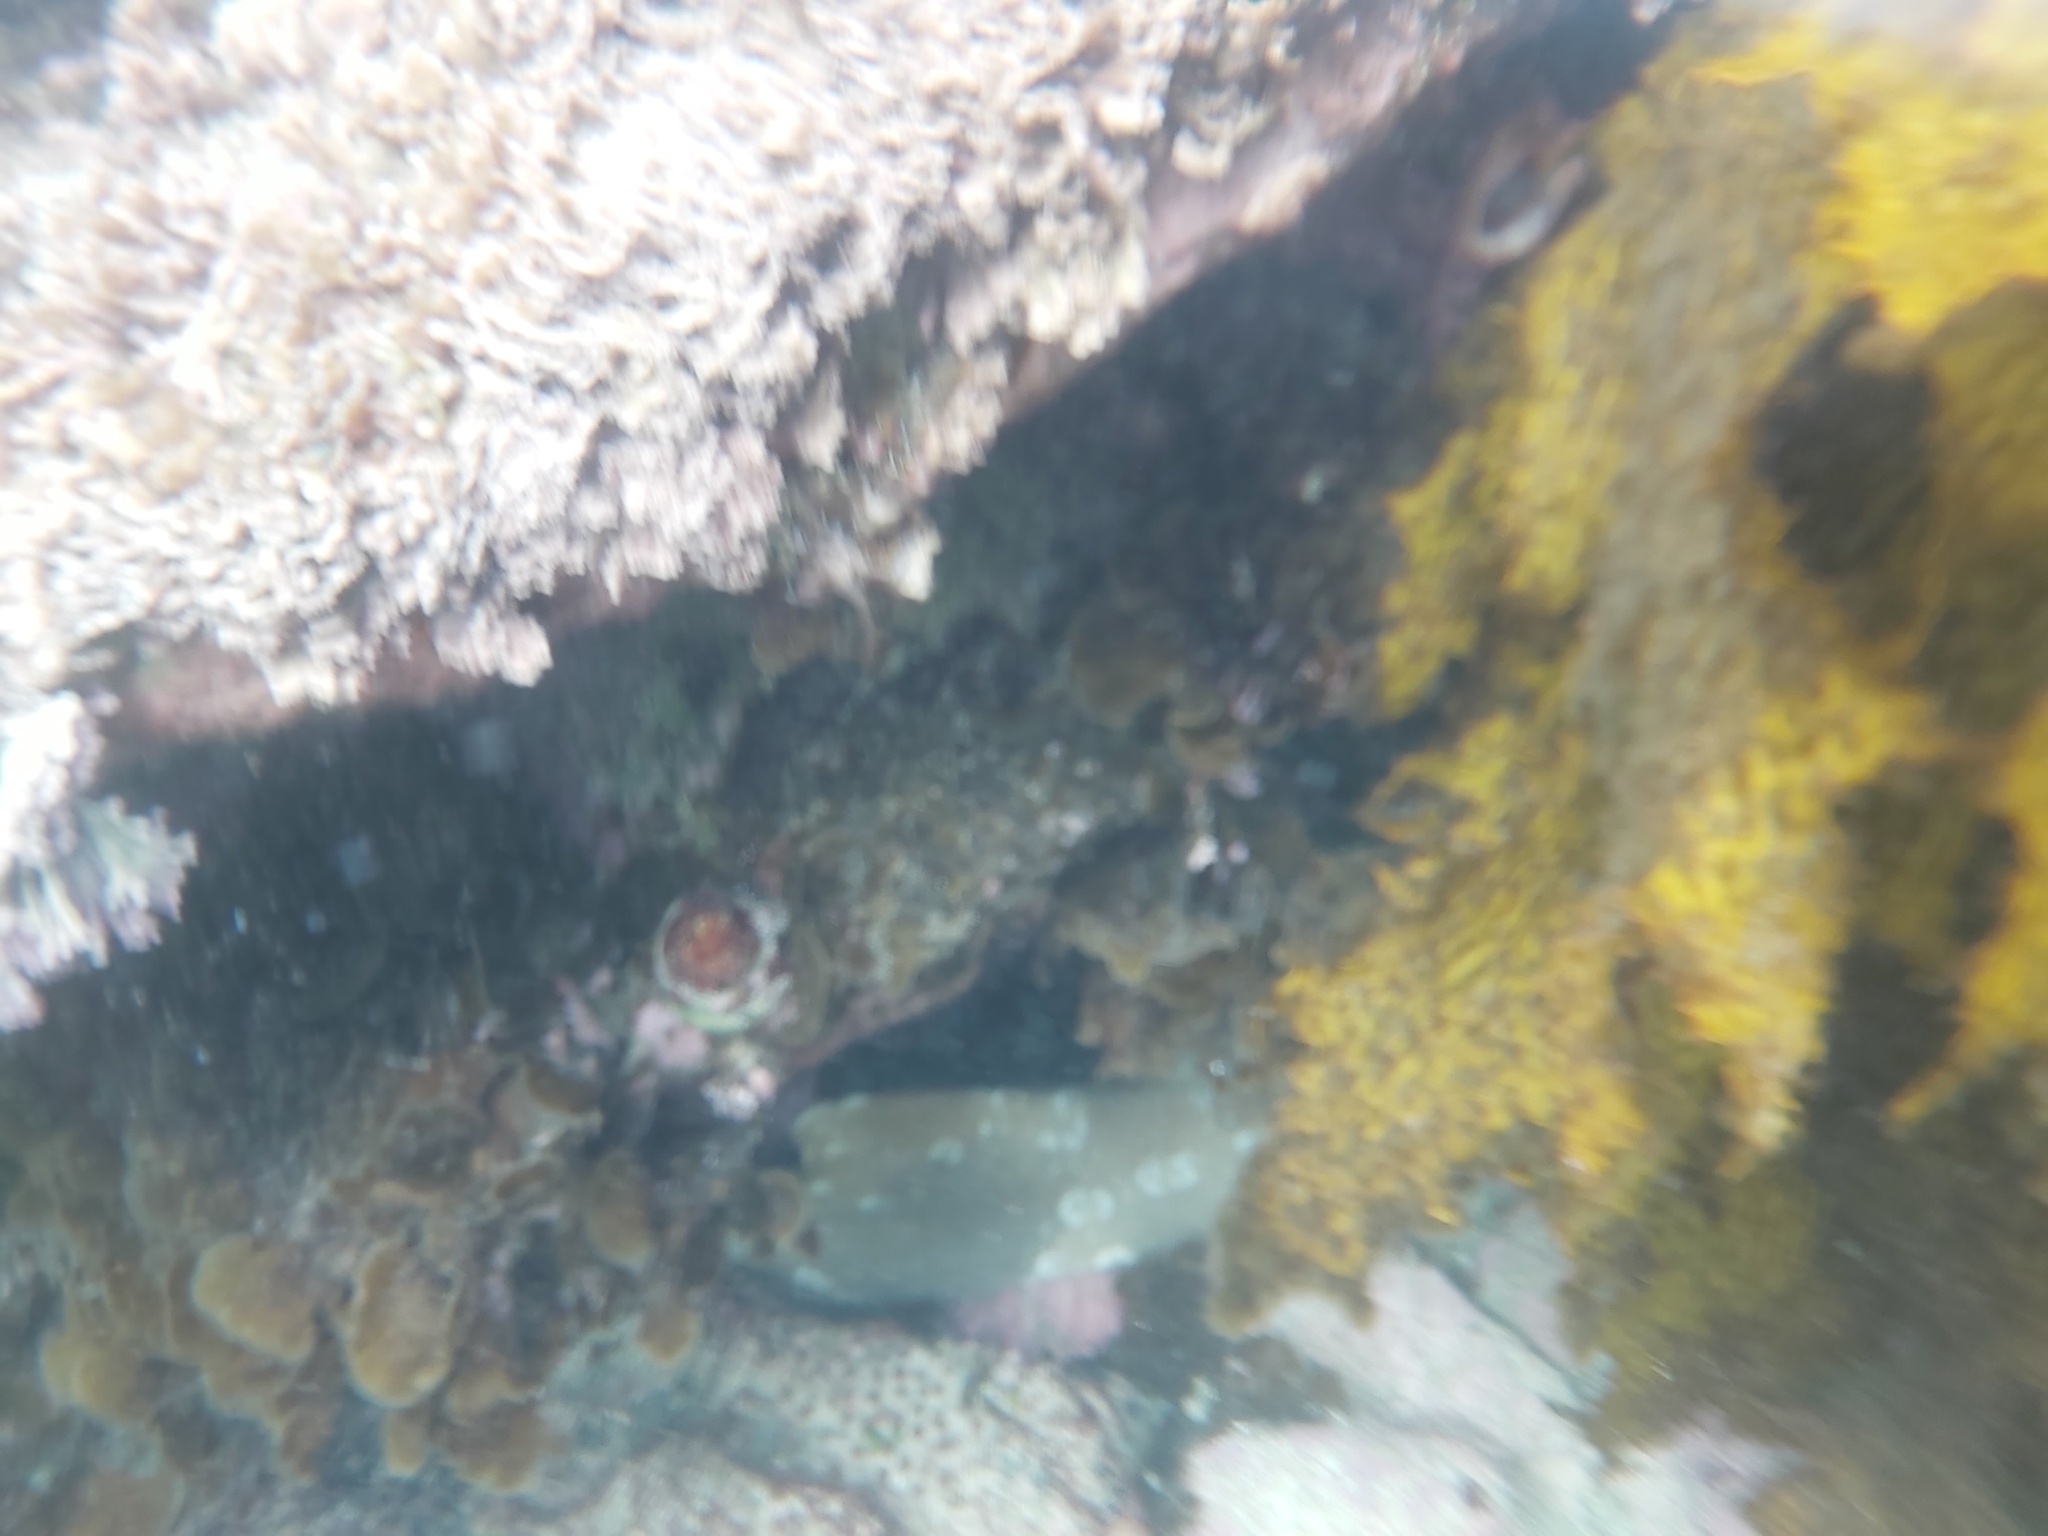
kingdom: Animalia
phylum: Chordata
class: Elasmobranchii
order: Orectolobiformes
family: Orectolobidae
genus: Orectolobus
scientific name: Orectolobus maculatus
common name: Spotted wobbegong
